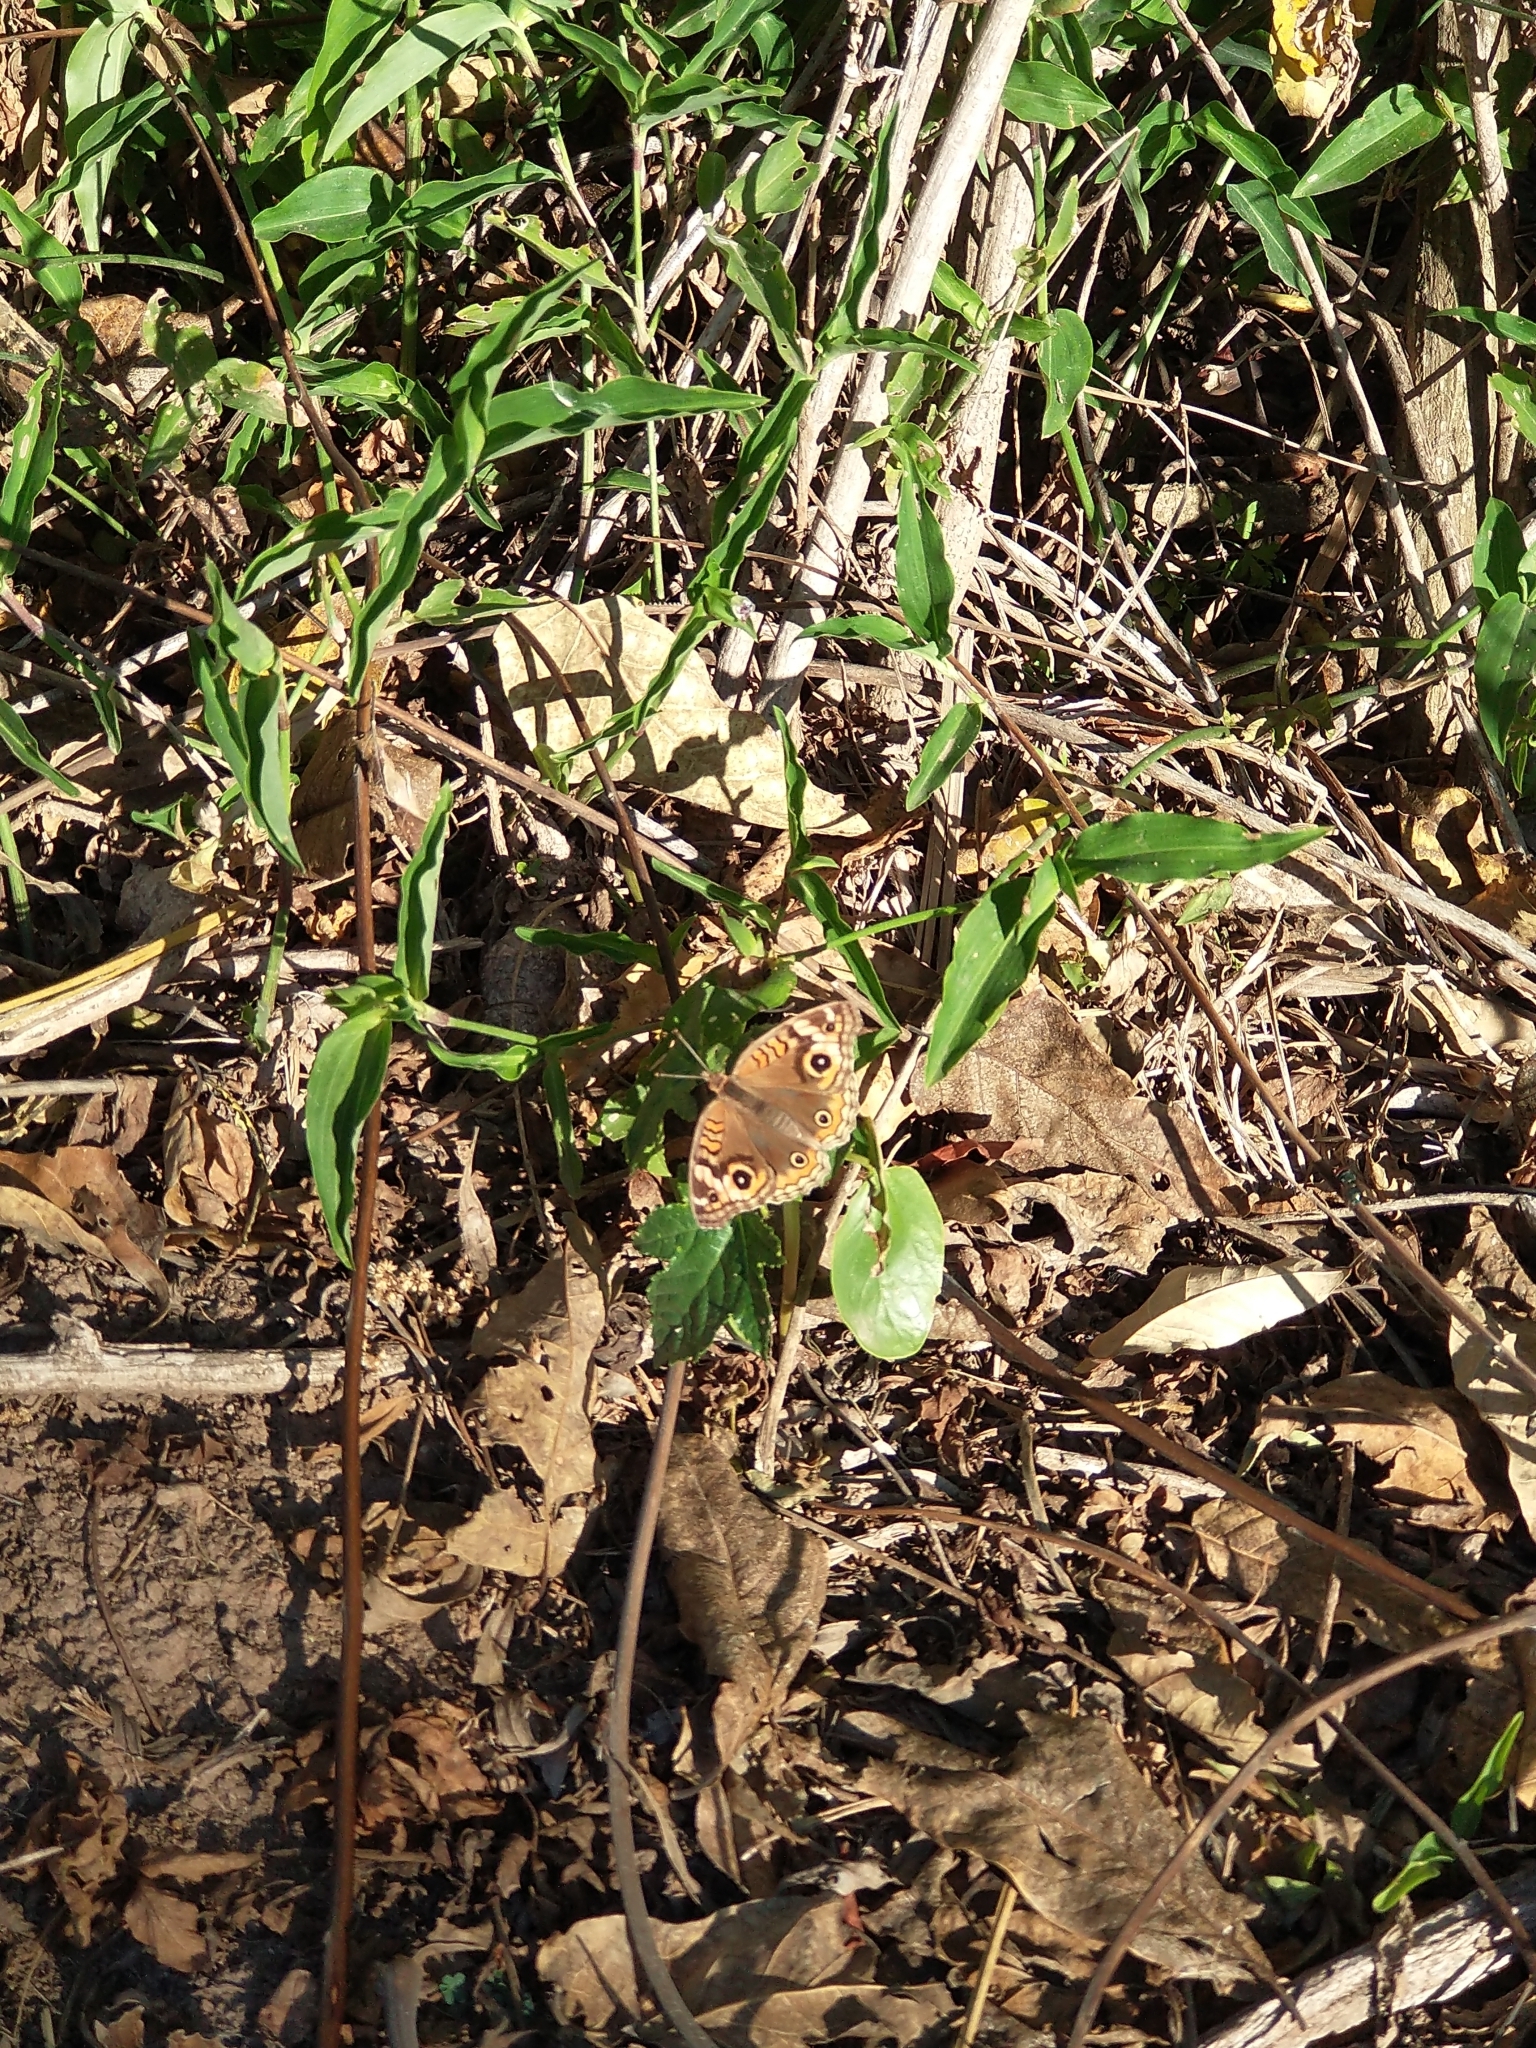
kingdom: Animalia
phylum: Arthropoda
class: Insecta
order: Lepidoptera
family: Nymphalidae
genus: Junonia
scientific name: Junonia lavinia
